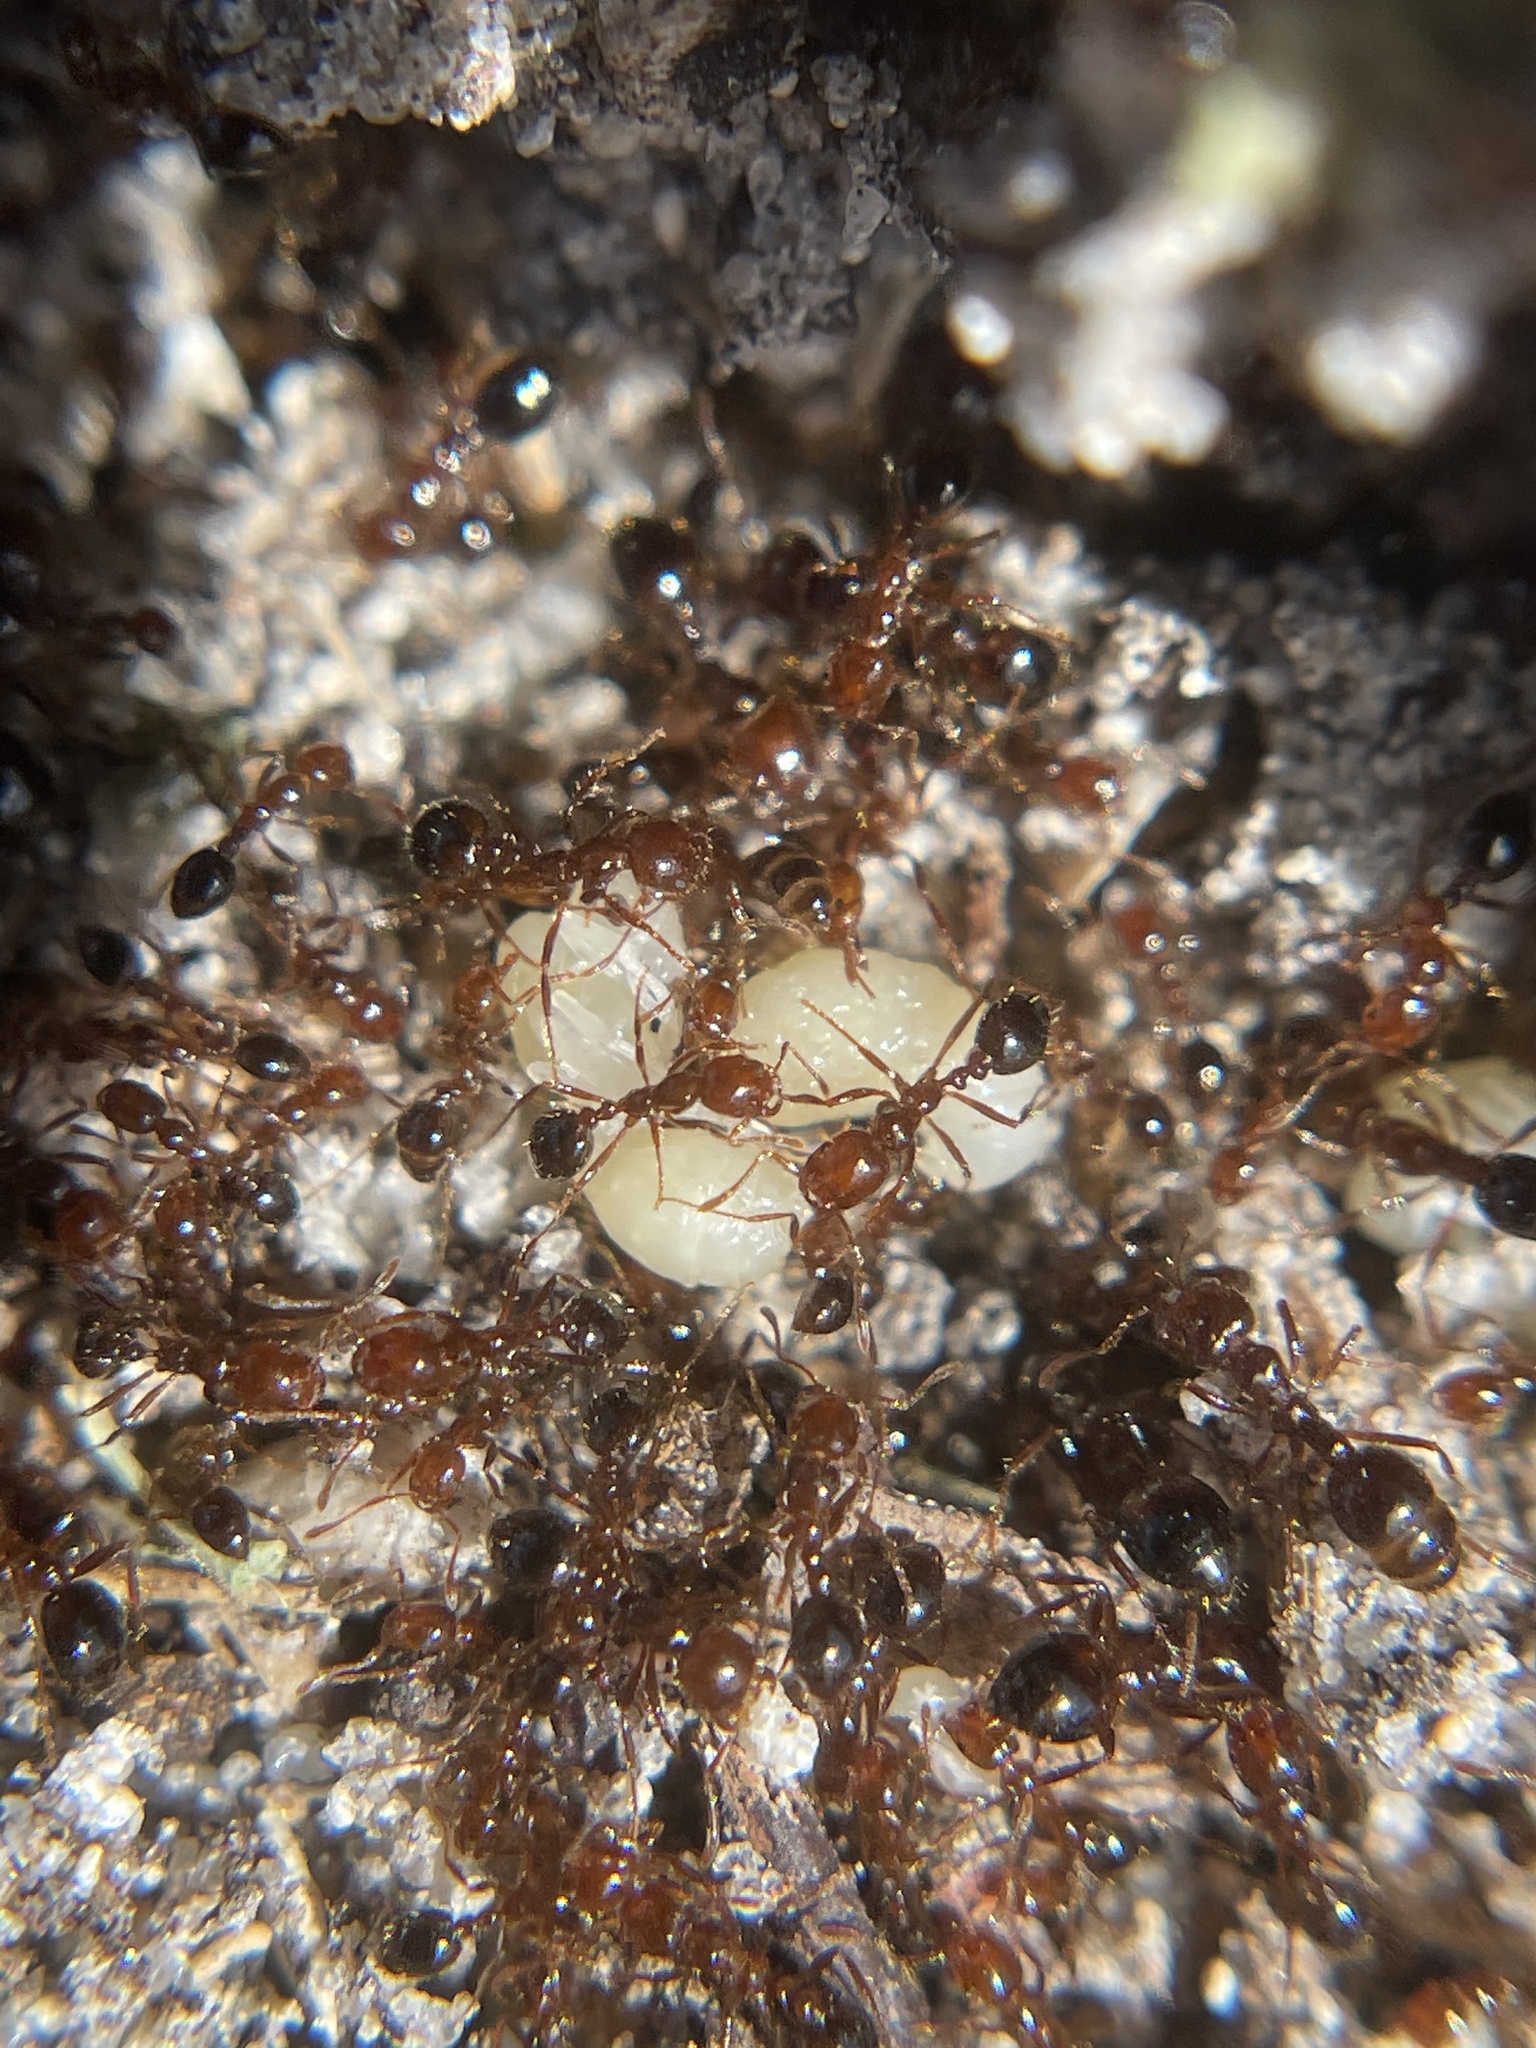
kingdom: Animalia
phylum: Arthropoda
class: Insecta
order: Hymenoptera
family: Formicidae
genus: Solenopsis
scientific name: Solenopsis invicta
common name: Red imported fire ant
